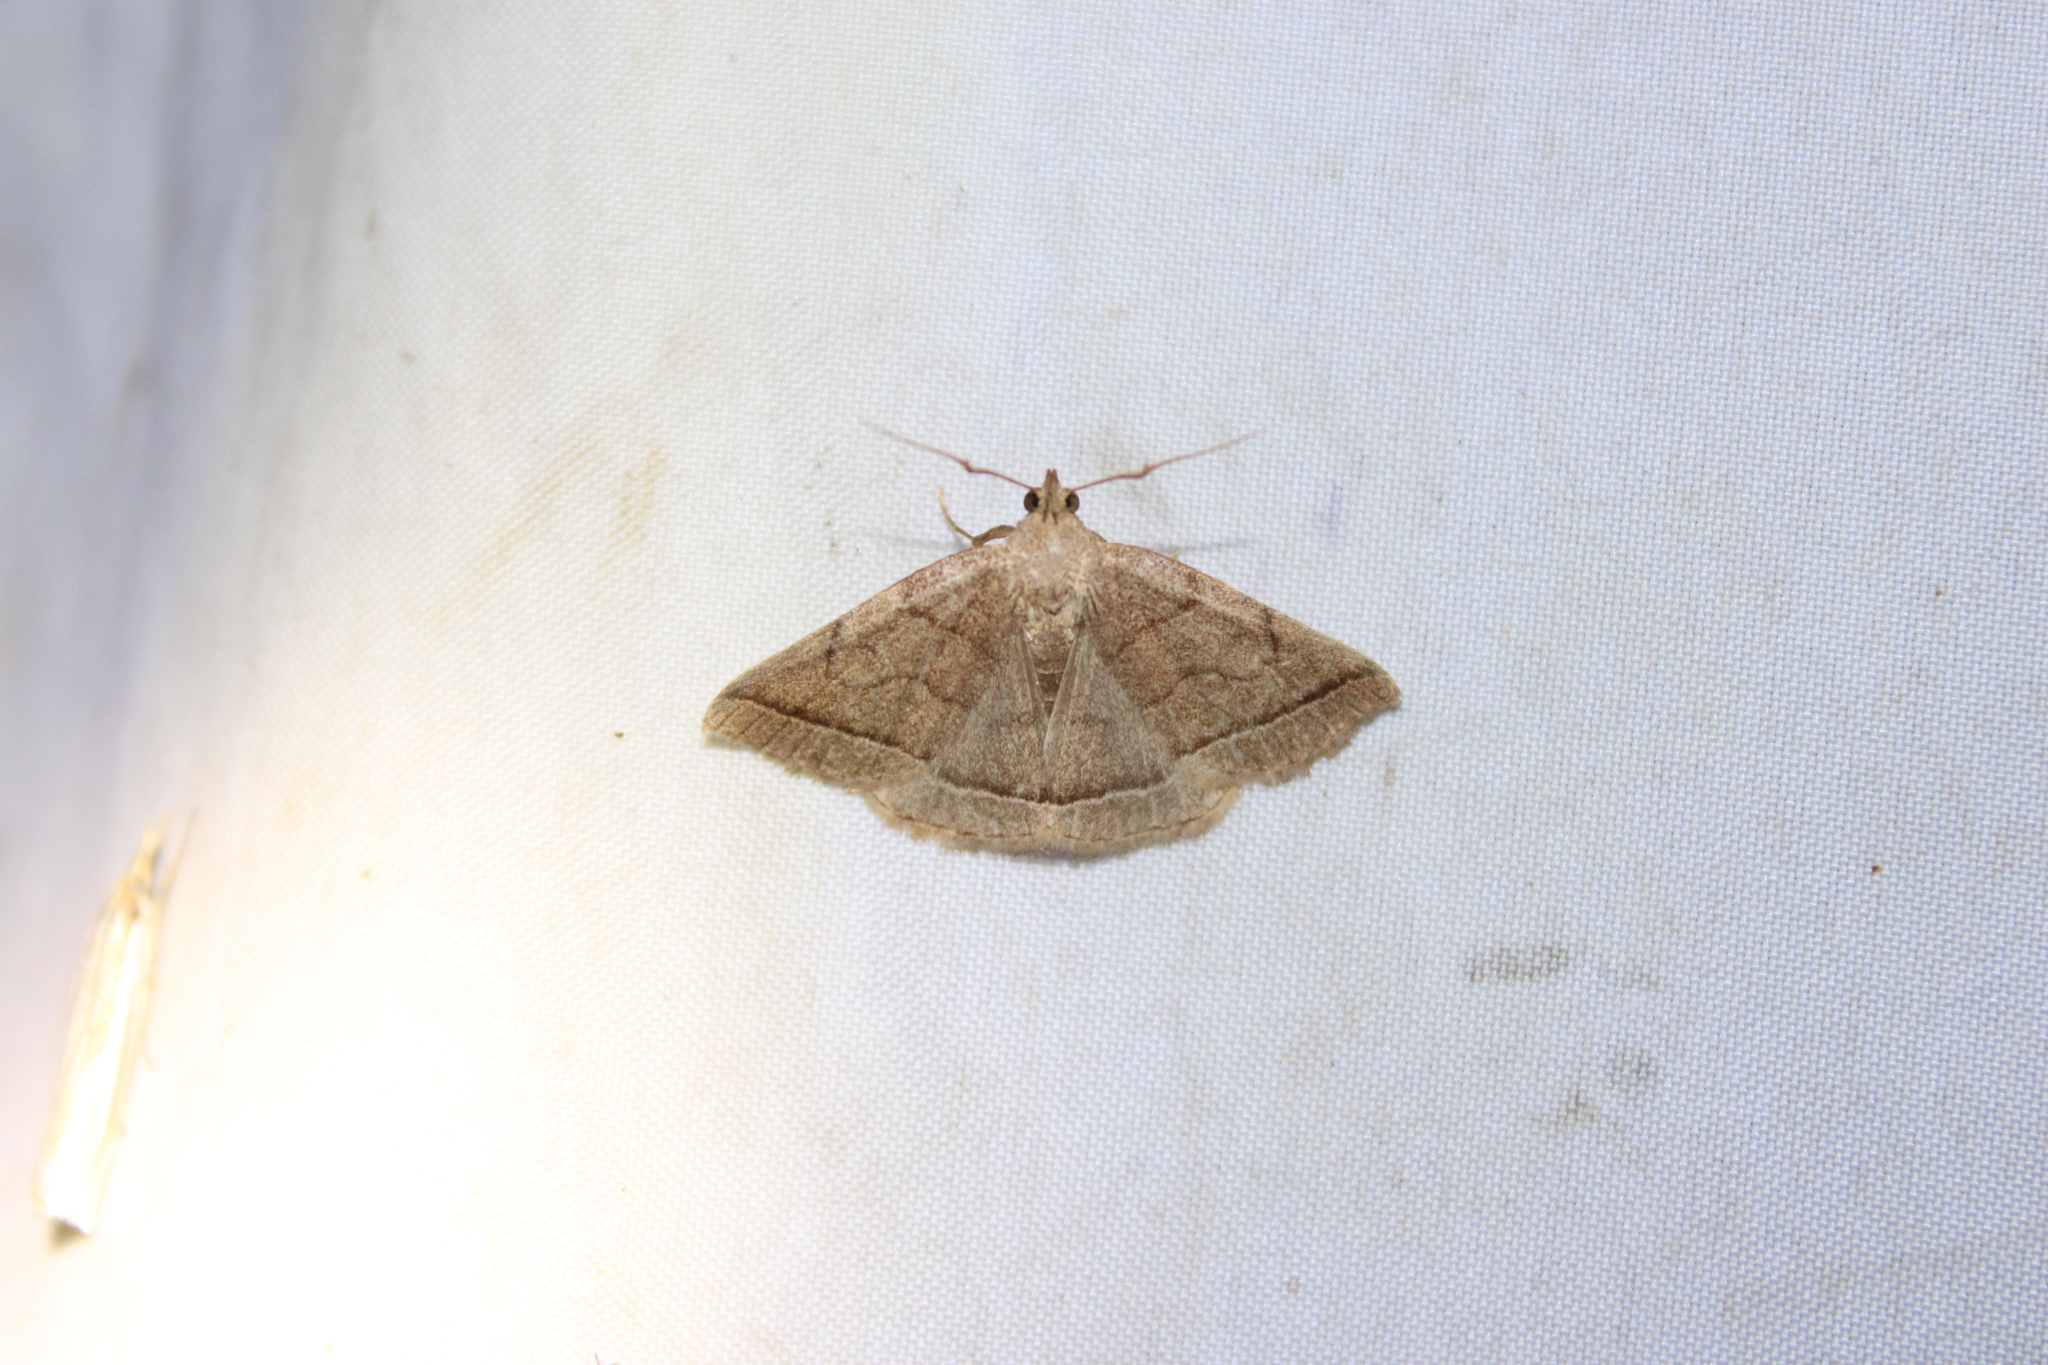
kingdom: Animalia
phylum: Arthropoda
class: Insecta
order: Lepidoptera
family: Erebidae
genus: Zanclognatha
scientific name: Zanclognatha cruralis
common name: Early fan-foot
